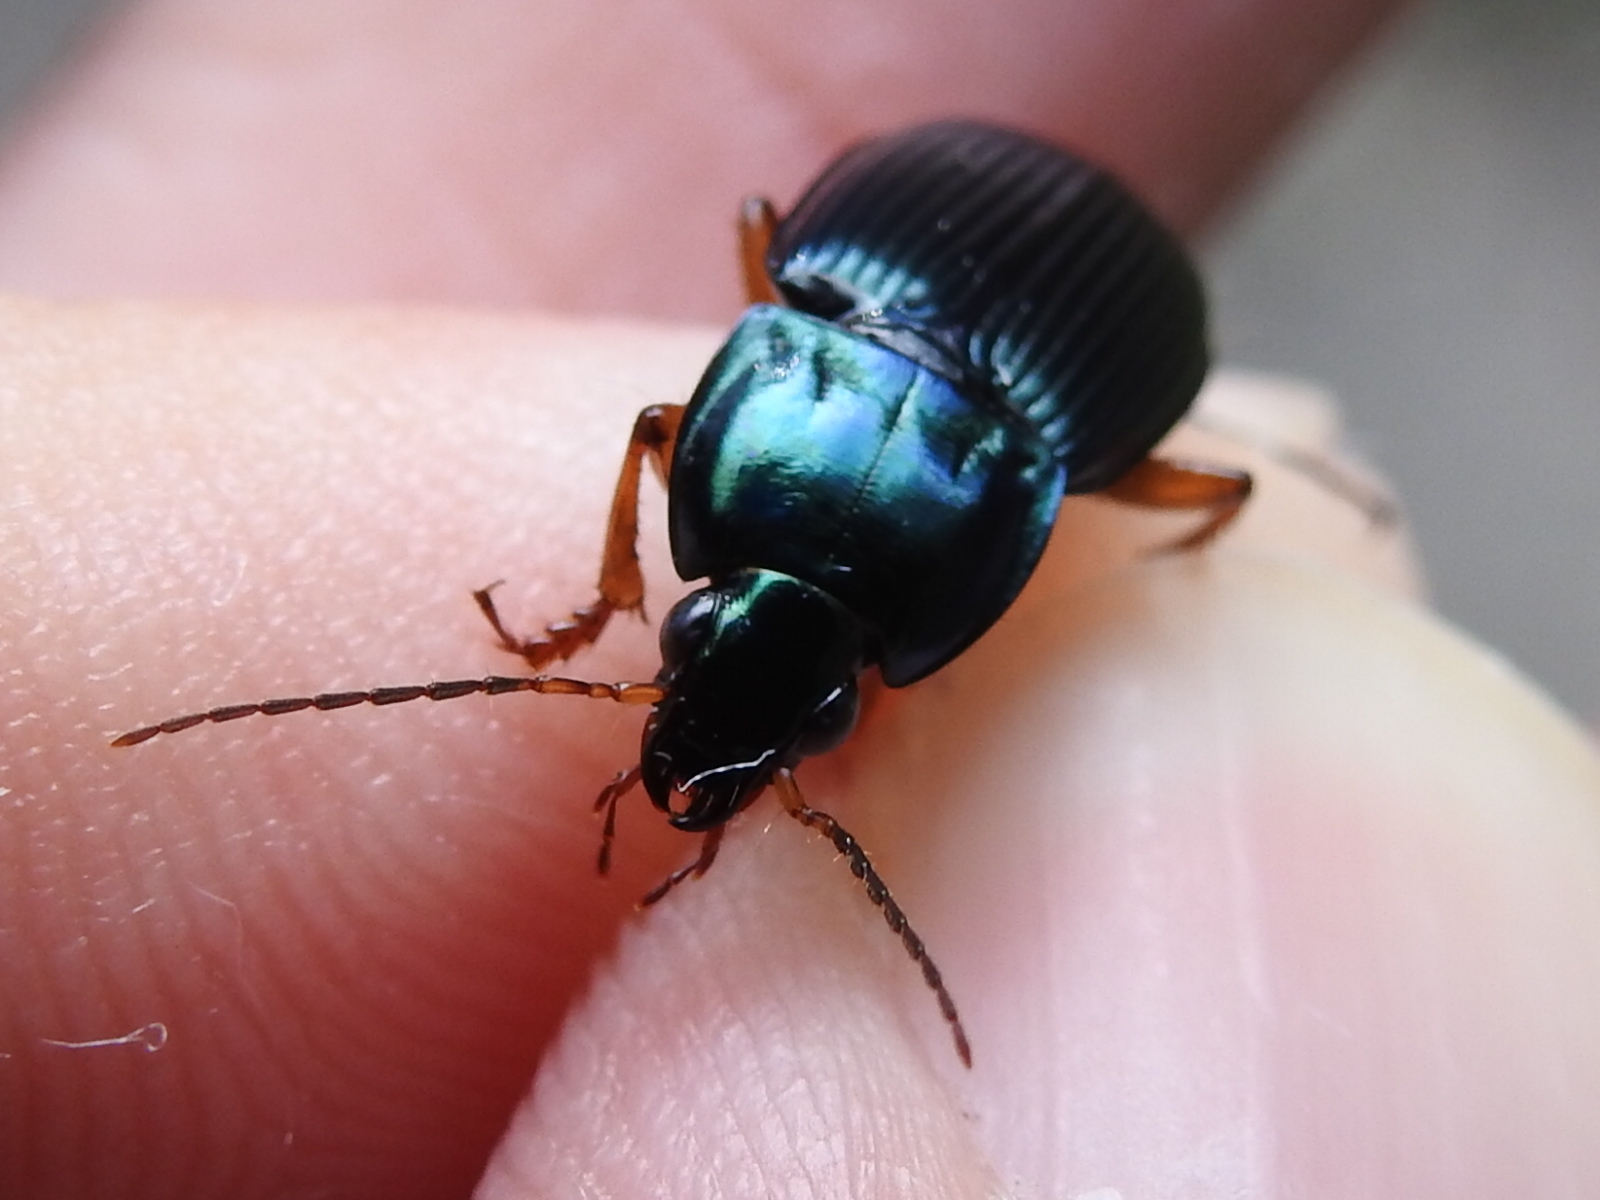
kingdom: Animalia
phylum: Arthropoda
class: Insecta
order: Coleoptera
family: Carabidae
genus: Poecilus
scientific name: Poecilus lucublandus
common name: Woodland ground beetle
